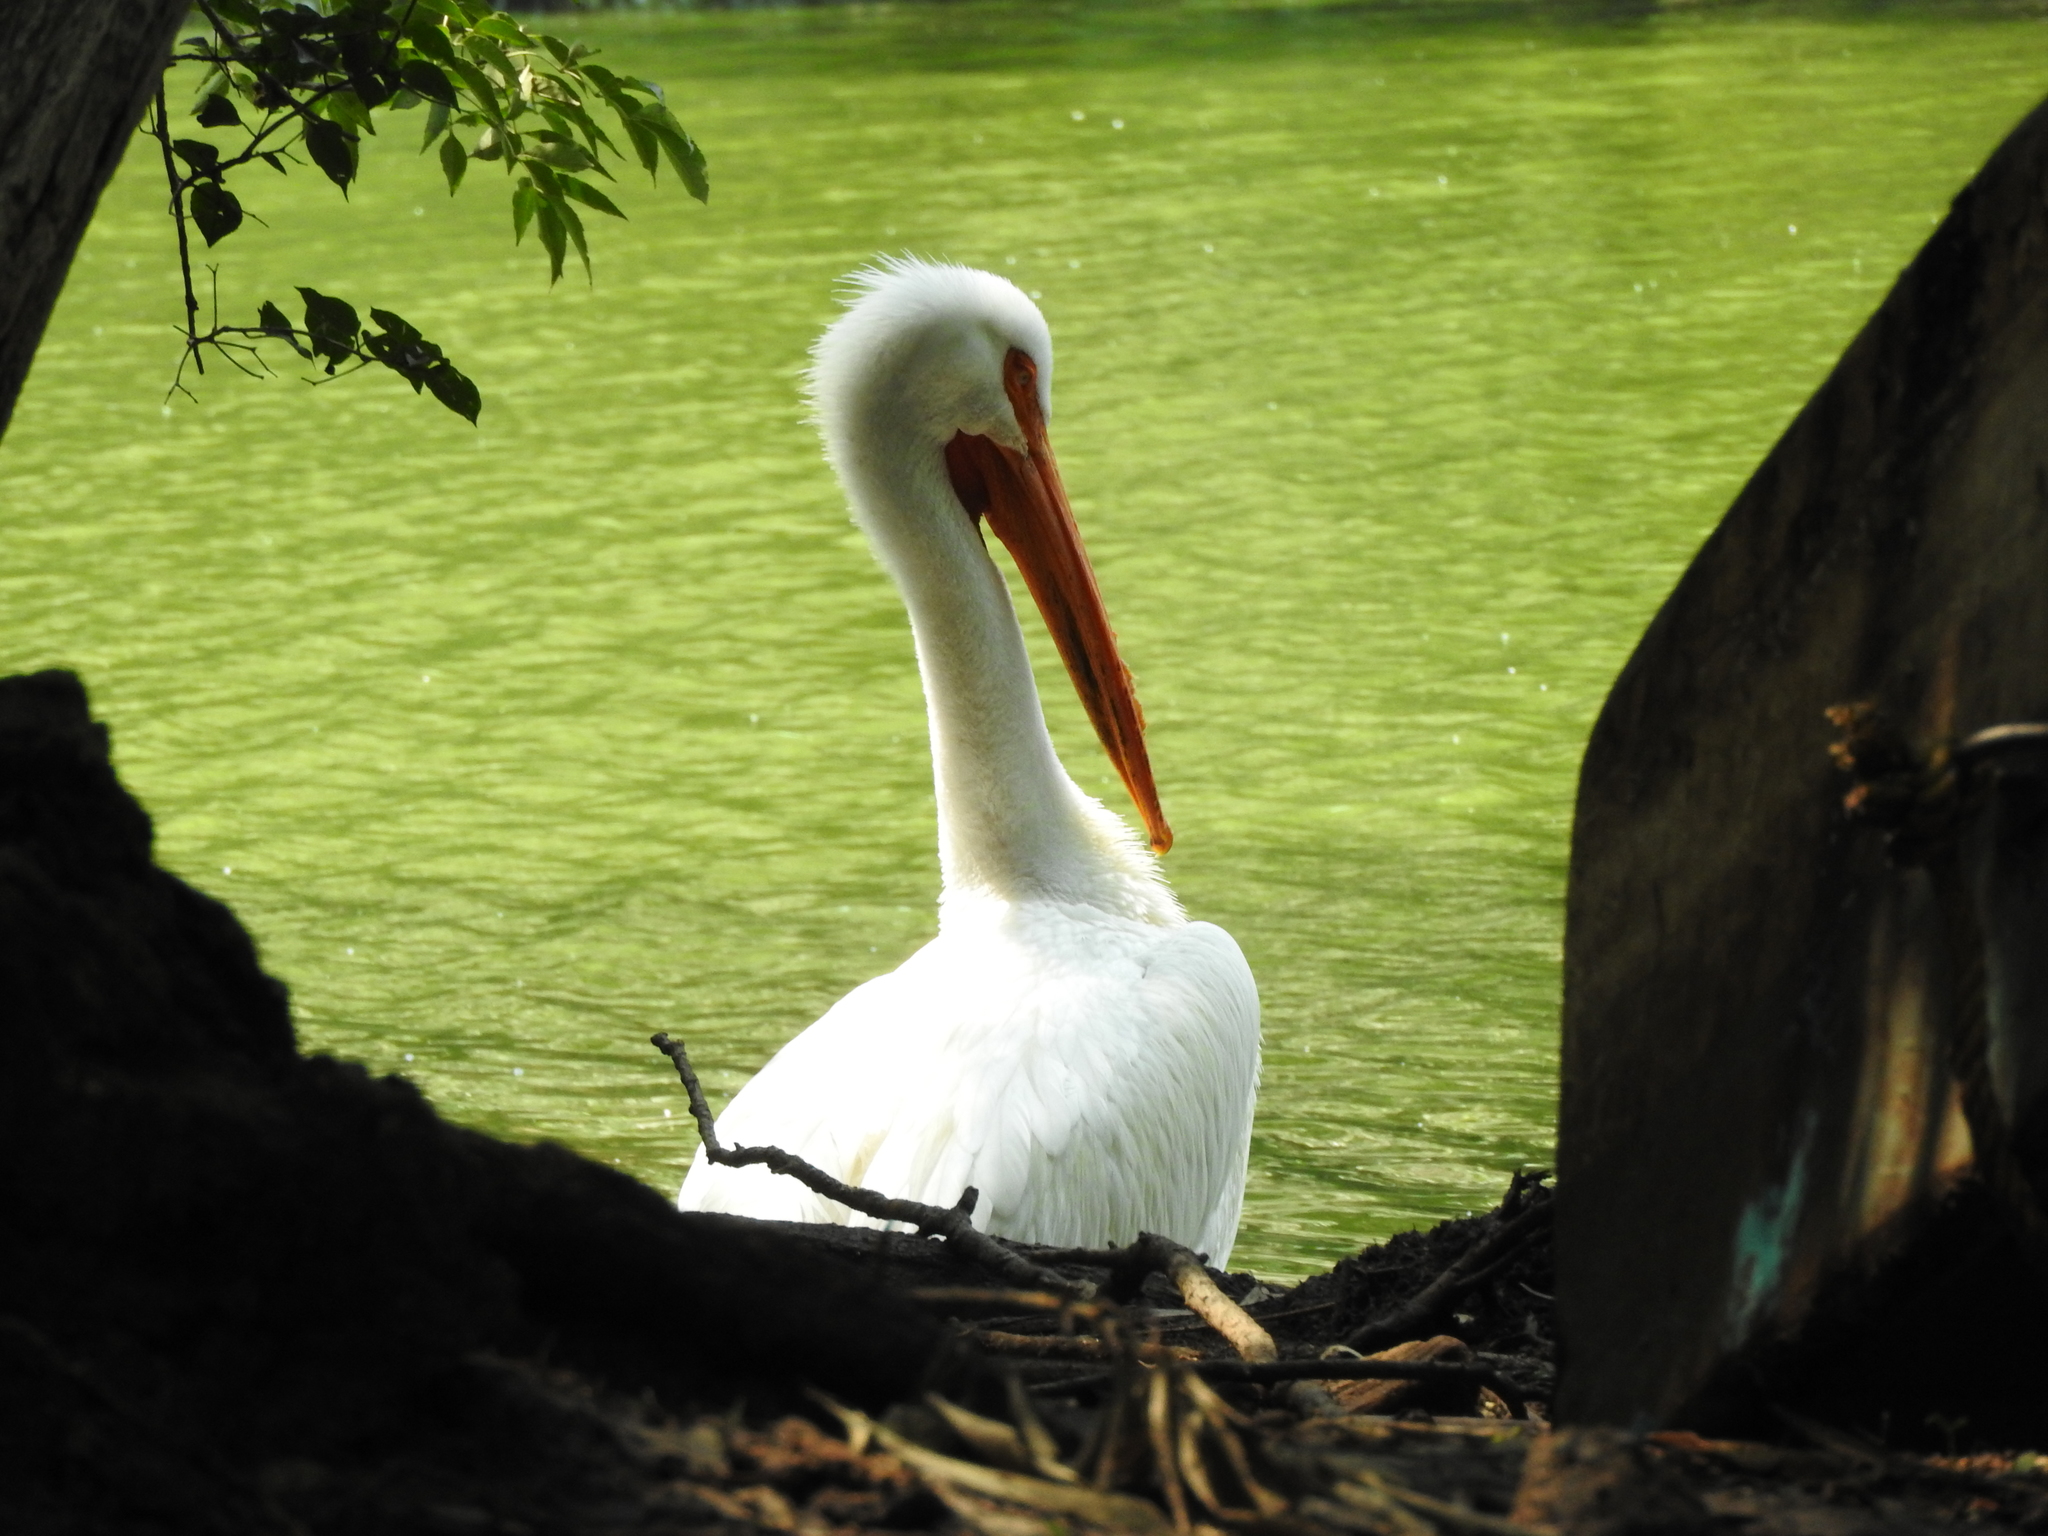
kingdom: Animalia
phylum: Chordata
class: Aves
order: Pelecaniformes
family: Pelecanidae
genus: Pelecanus
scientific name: Pelecanus erythrorhynchos
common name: American white pelican
